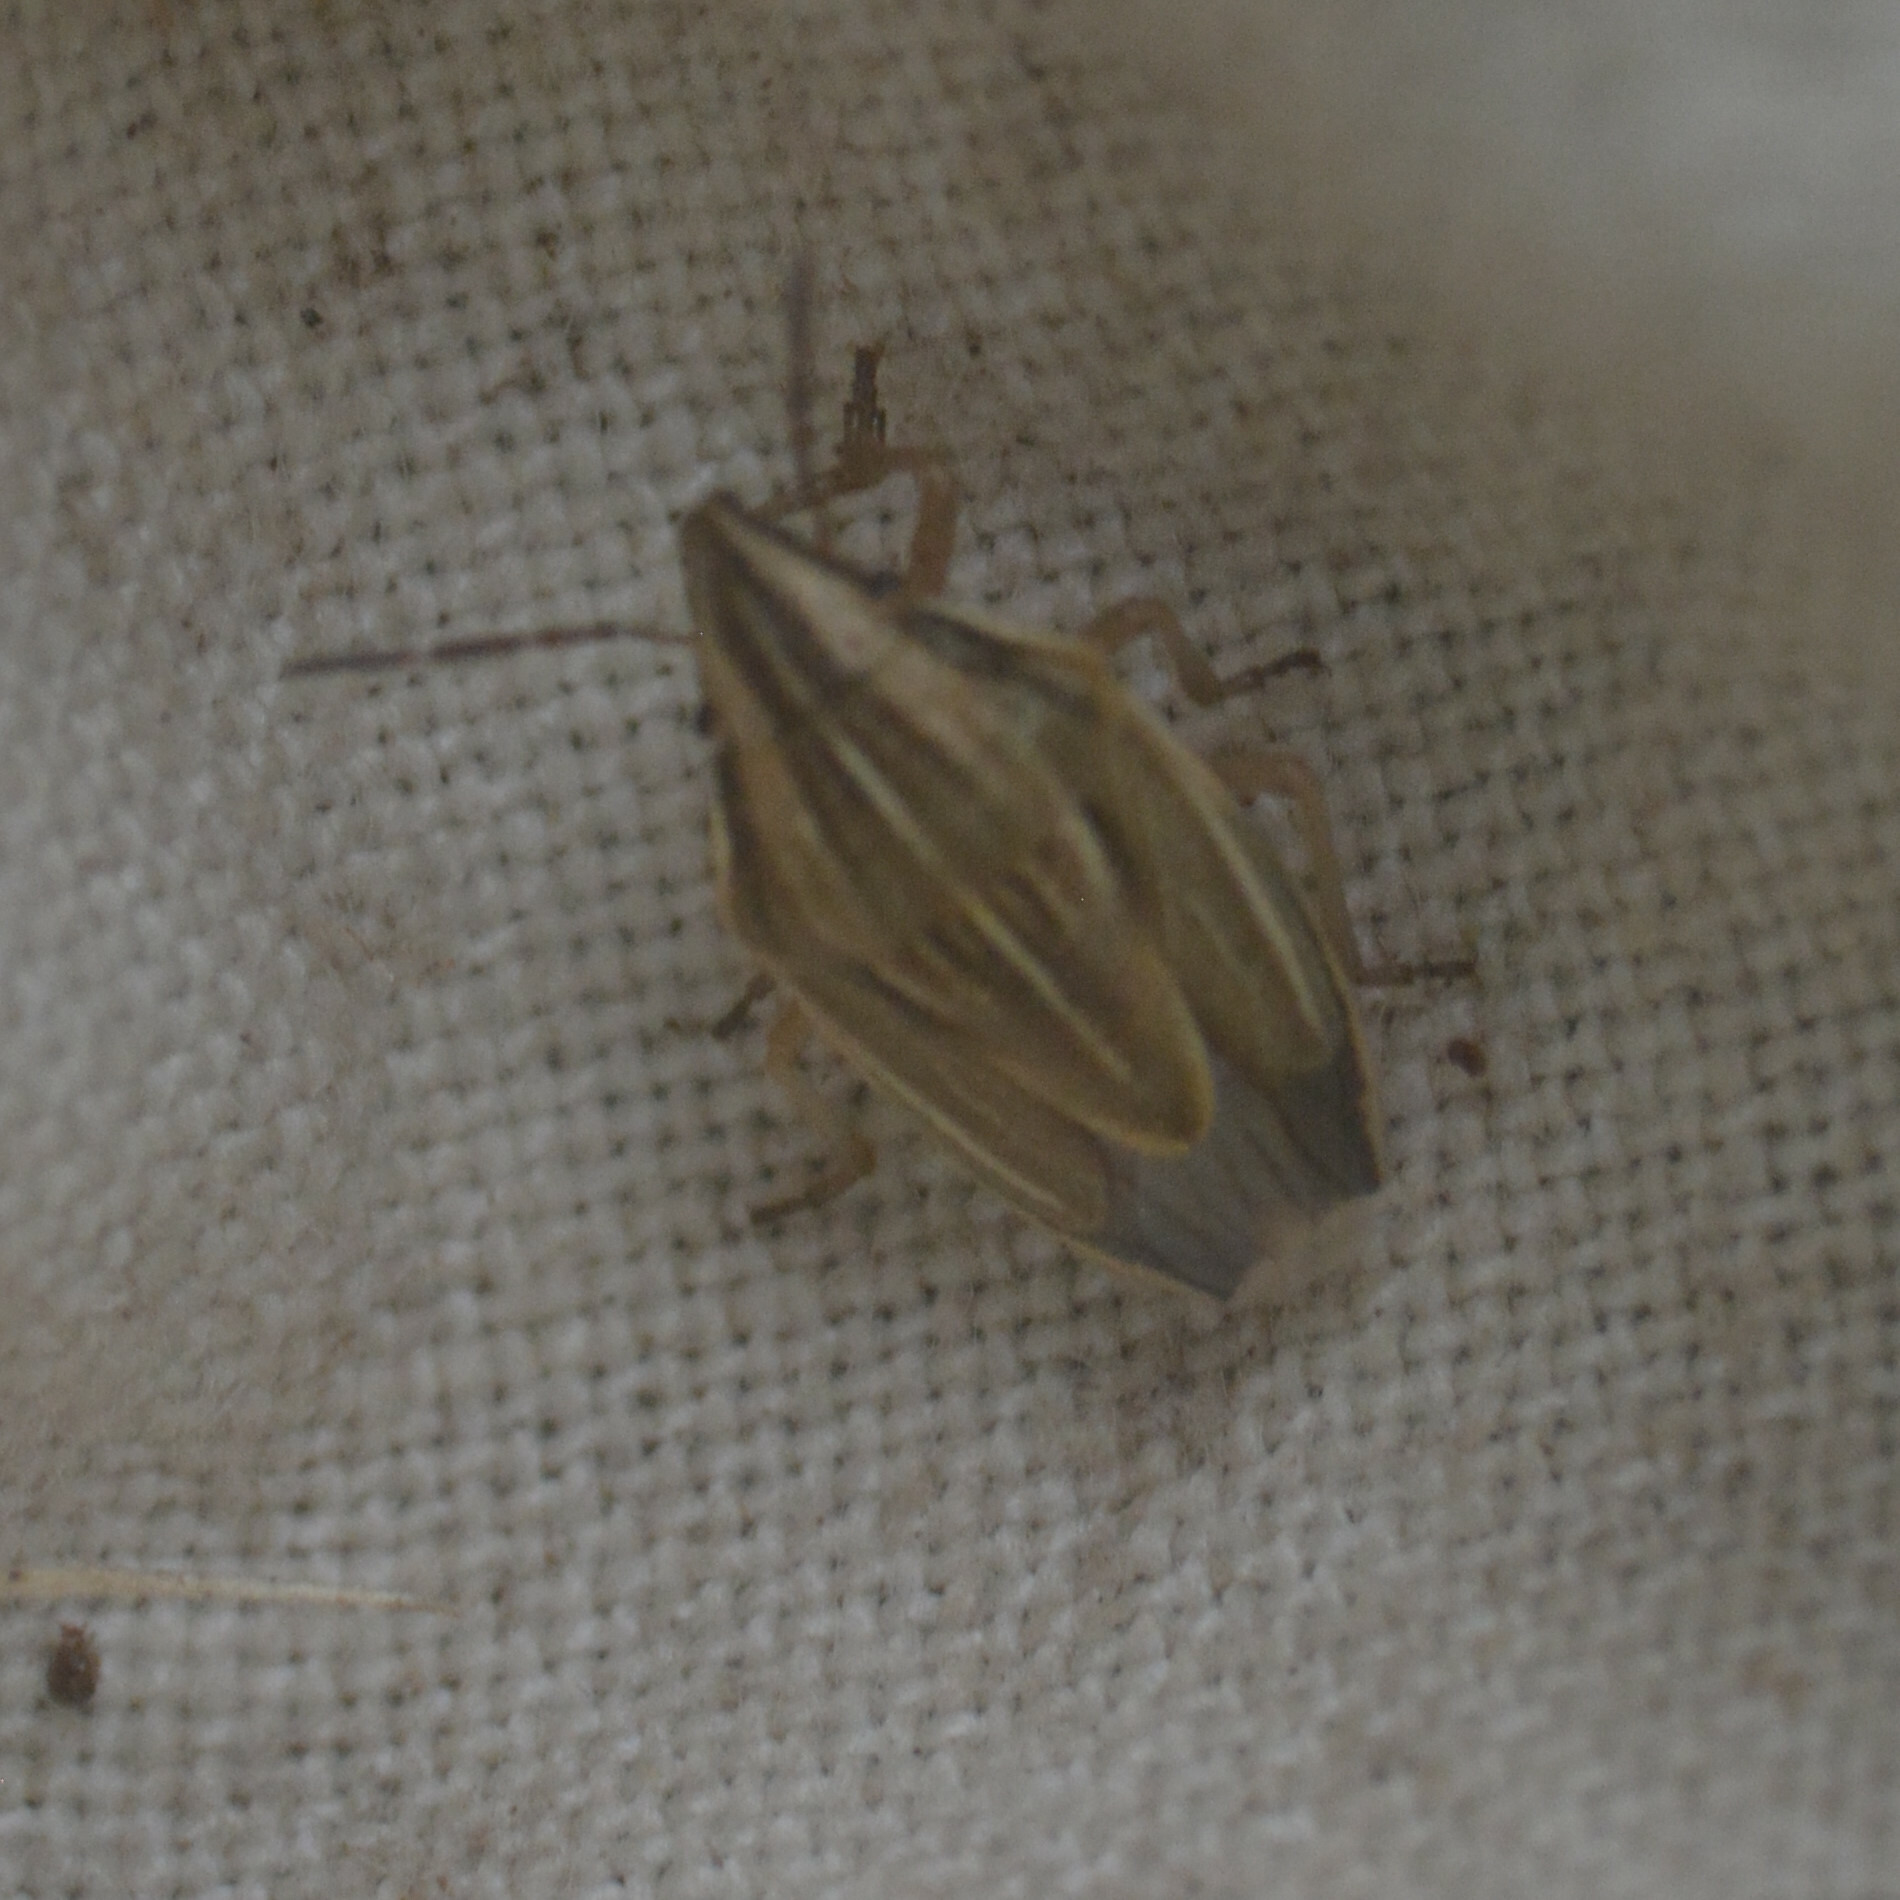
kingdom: Animalia
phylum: Arthropoda
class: Insecta
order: Hemiptera
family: Pentatomidae
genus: Aelia
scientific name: Aelia acuminata
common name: Bishop's mitre
